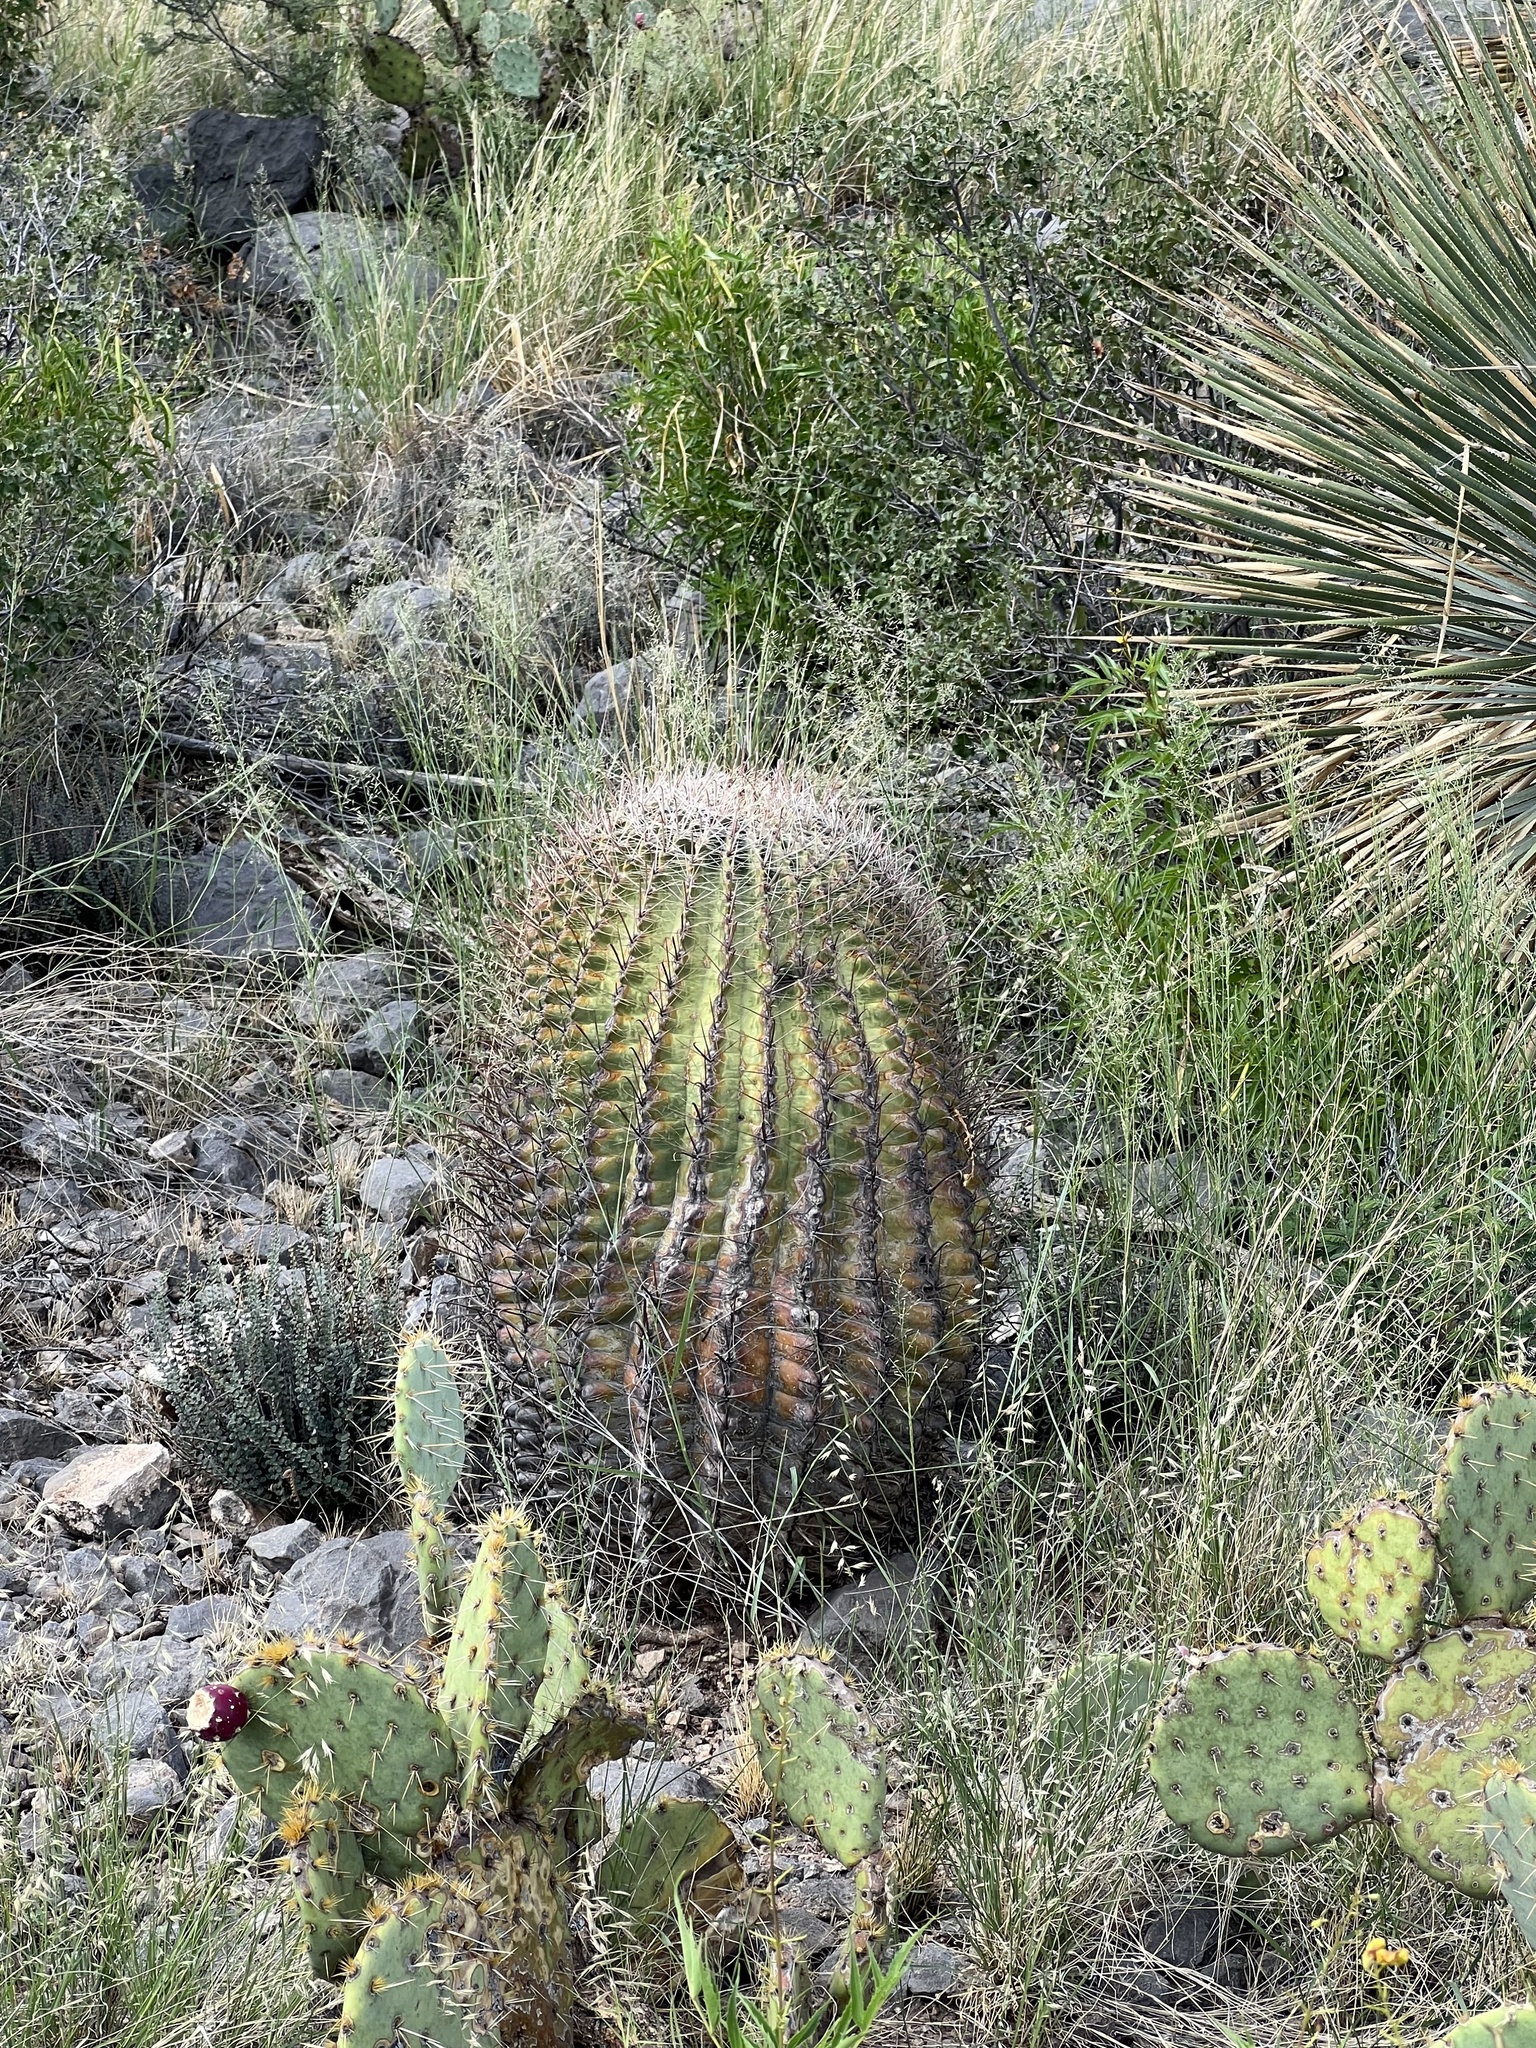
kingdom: Plantae
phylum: Tracheophyta
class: Magnoliopsida
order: Caryophyllales
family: Cactaceae
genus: Ferocactus
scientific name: Ferocactus wislizeni
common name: Candy barrel cactus
